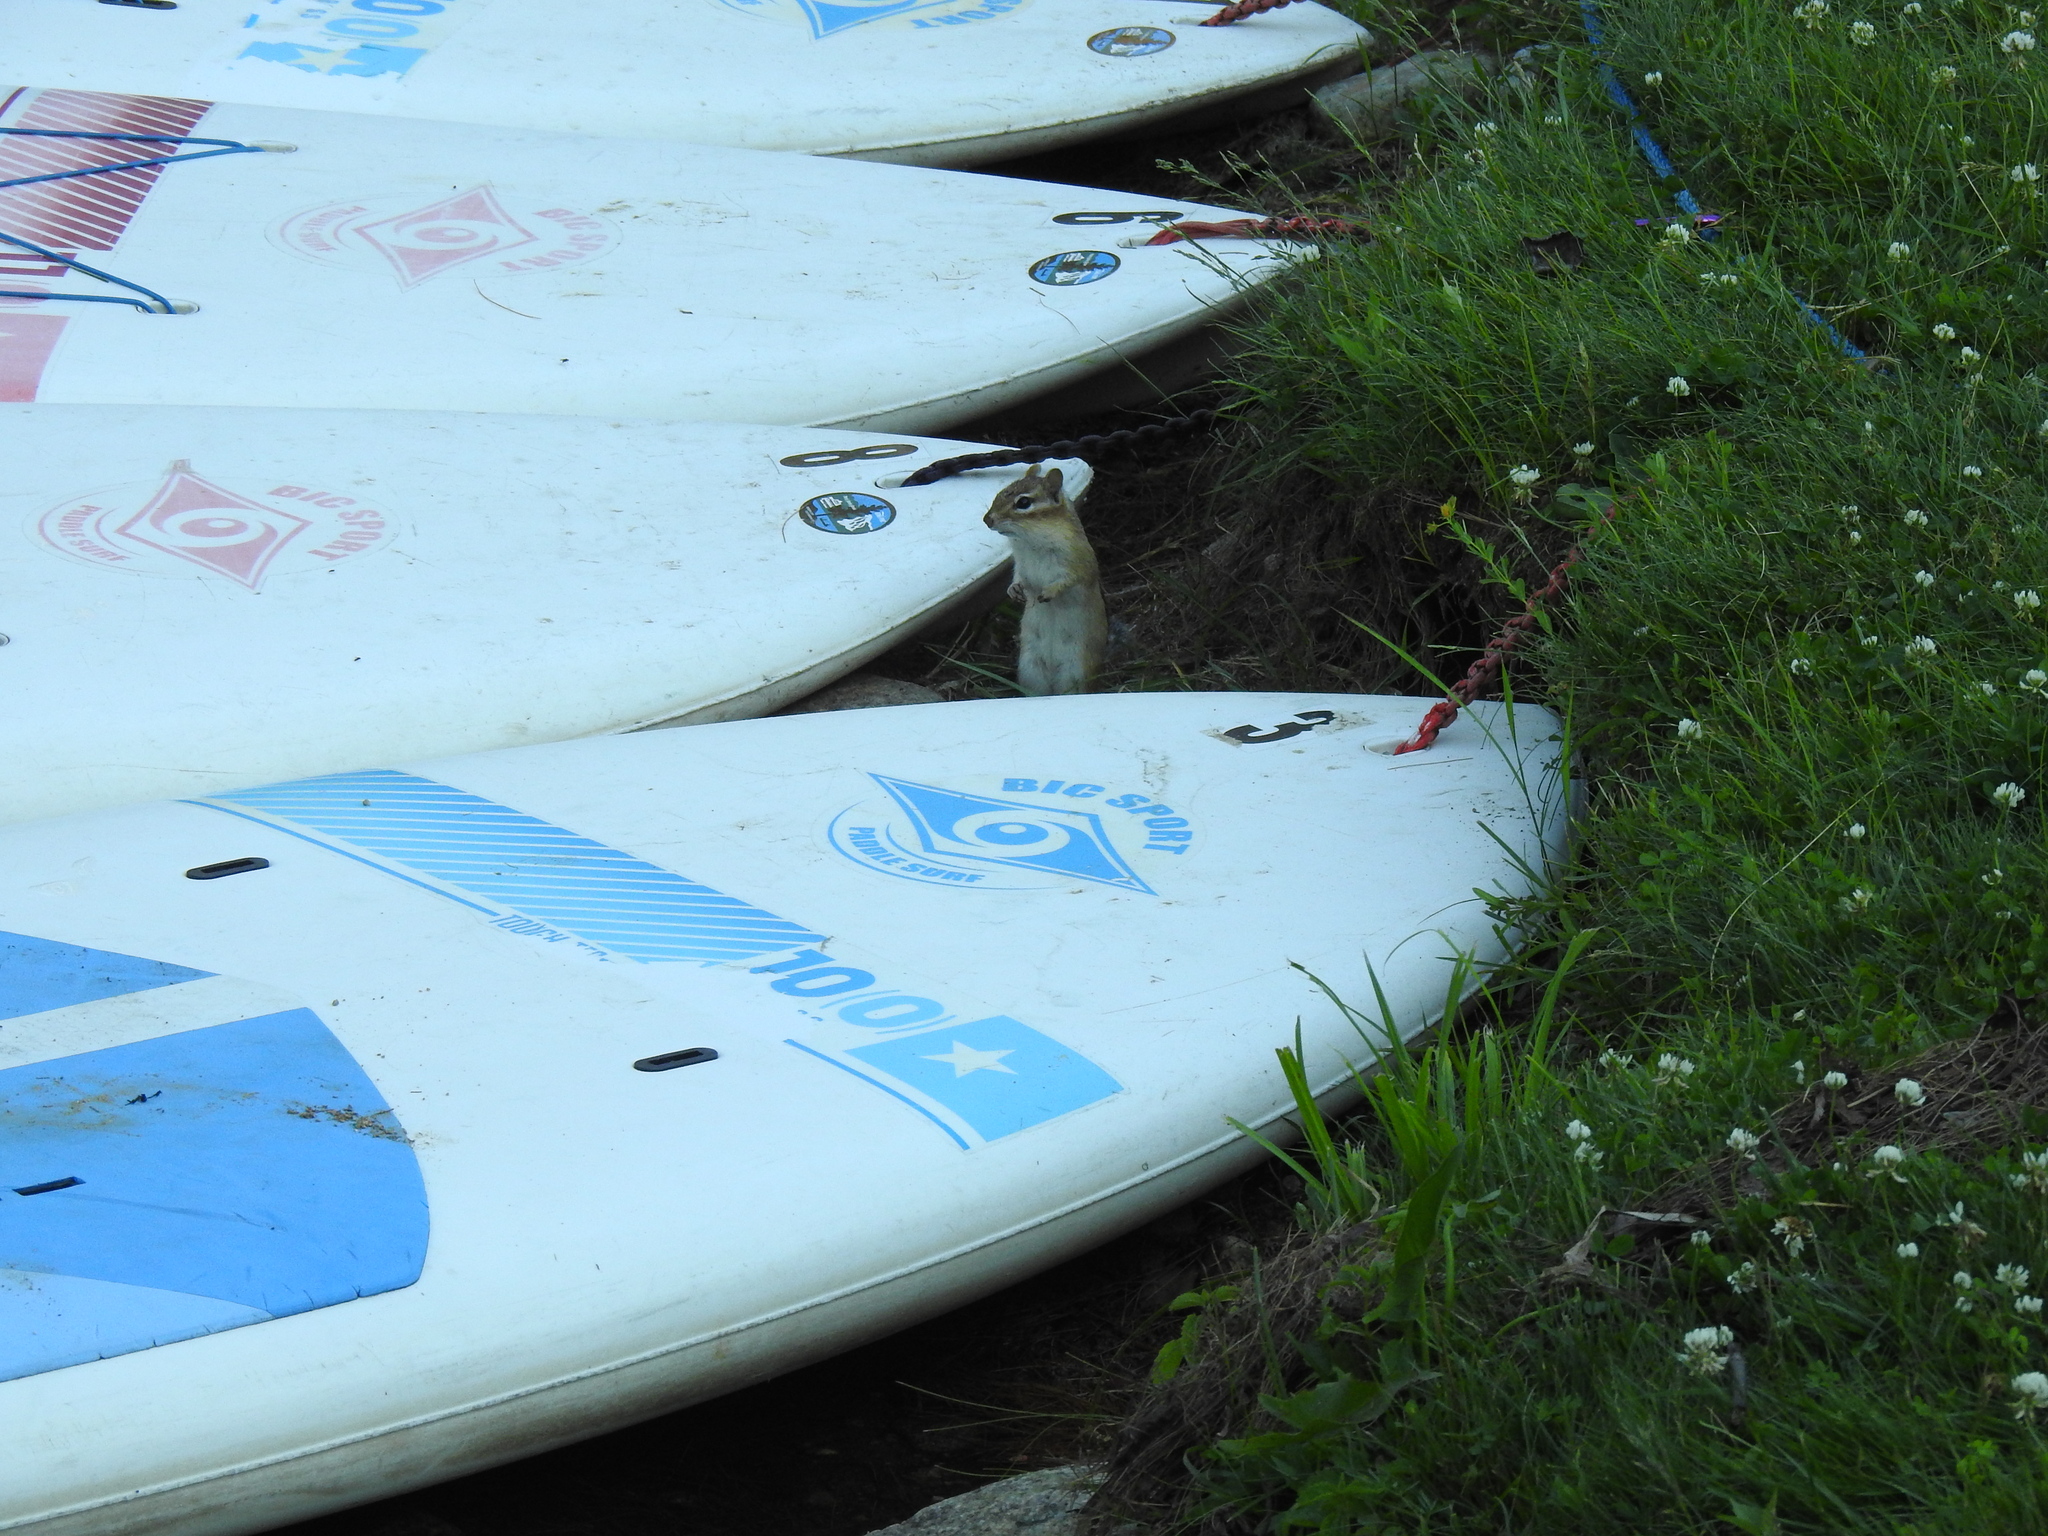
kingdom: Animalia
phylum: Chordata
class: Mammalia
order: Rodentia
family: Sciuridae
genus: Tamias
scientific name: Tamias striatus
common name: Eastern chipmunk
